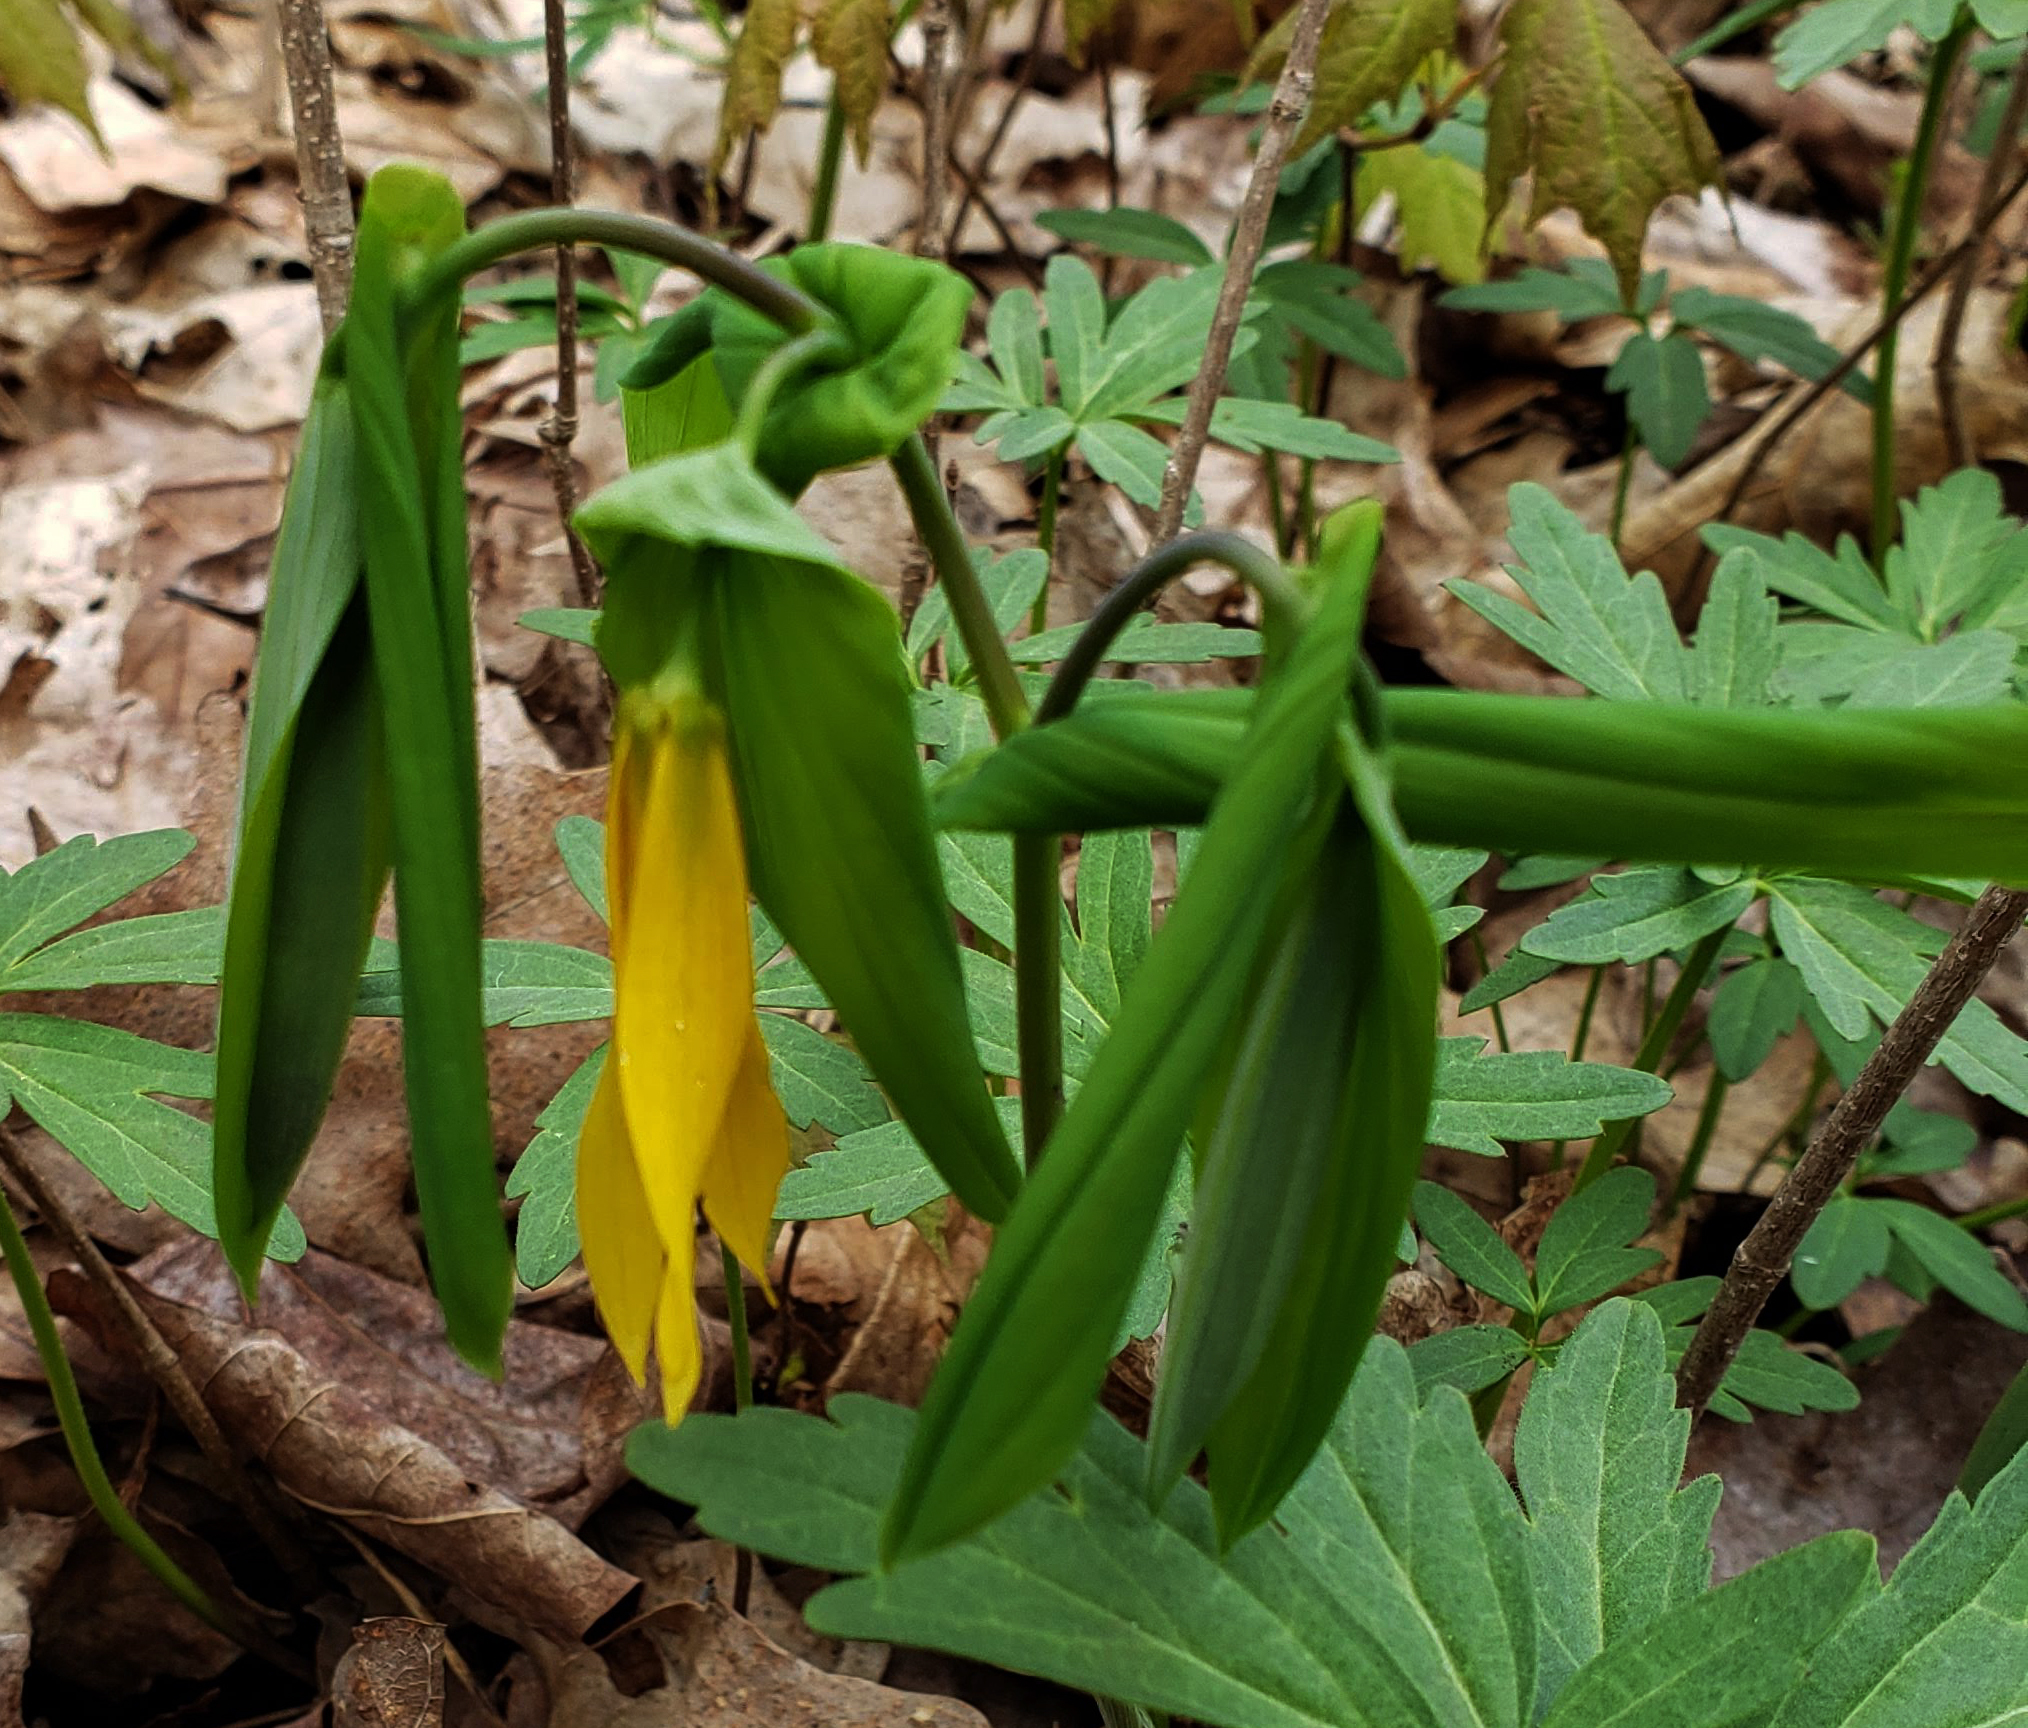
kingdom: Plantae
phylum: Tracheophyta
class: Liliopsida
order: Liliales
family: Colchicaceae
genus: Uvularia
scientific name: Uvularia grandiflora
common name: Bellwort
